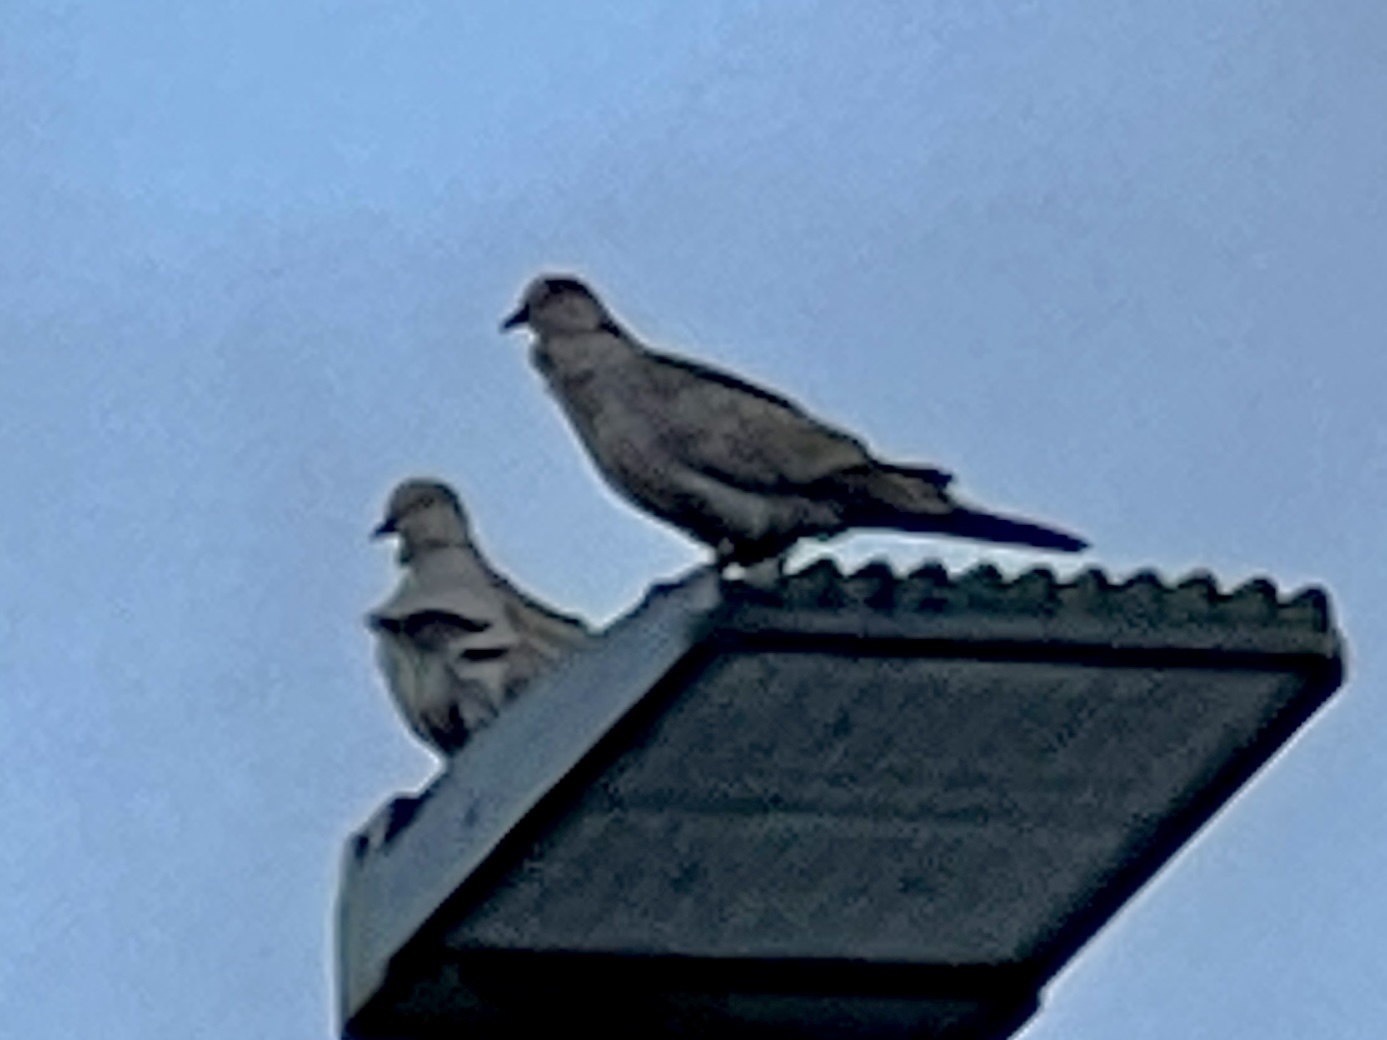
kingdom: Animalia
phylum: Chordata
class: Aves
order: Columbiformes
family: Columbidae
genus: Streptopelia
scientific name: Streptopelia decaocto
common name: Eurasian collared dove
